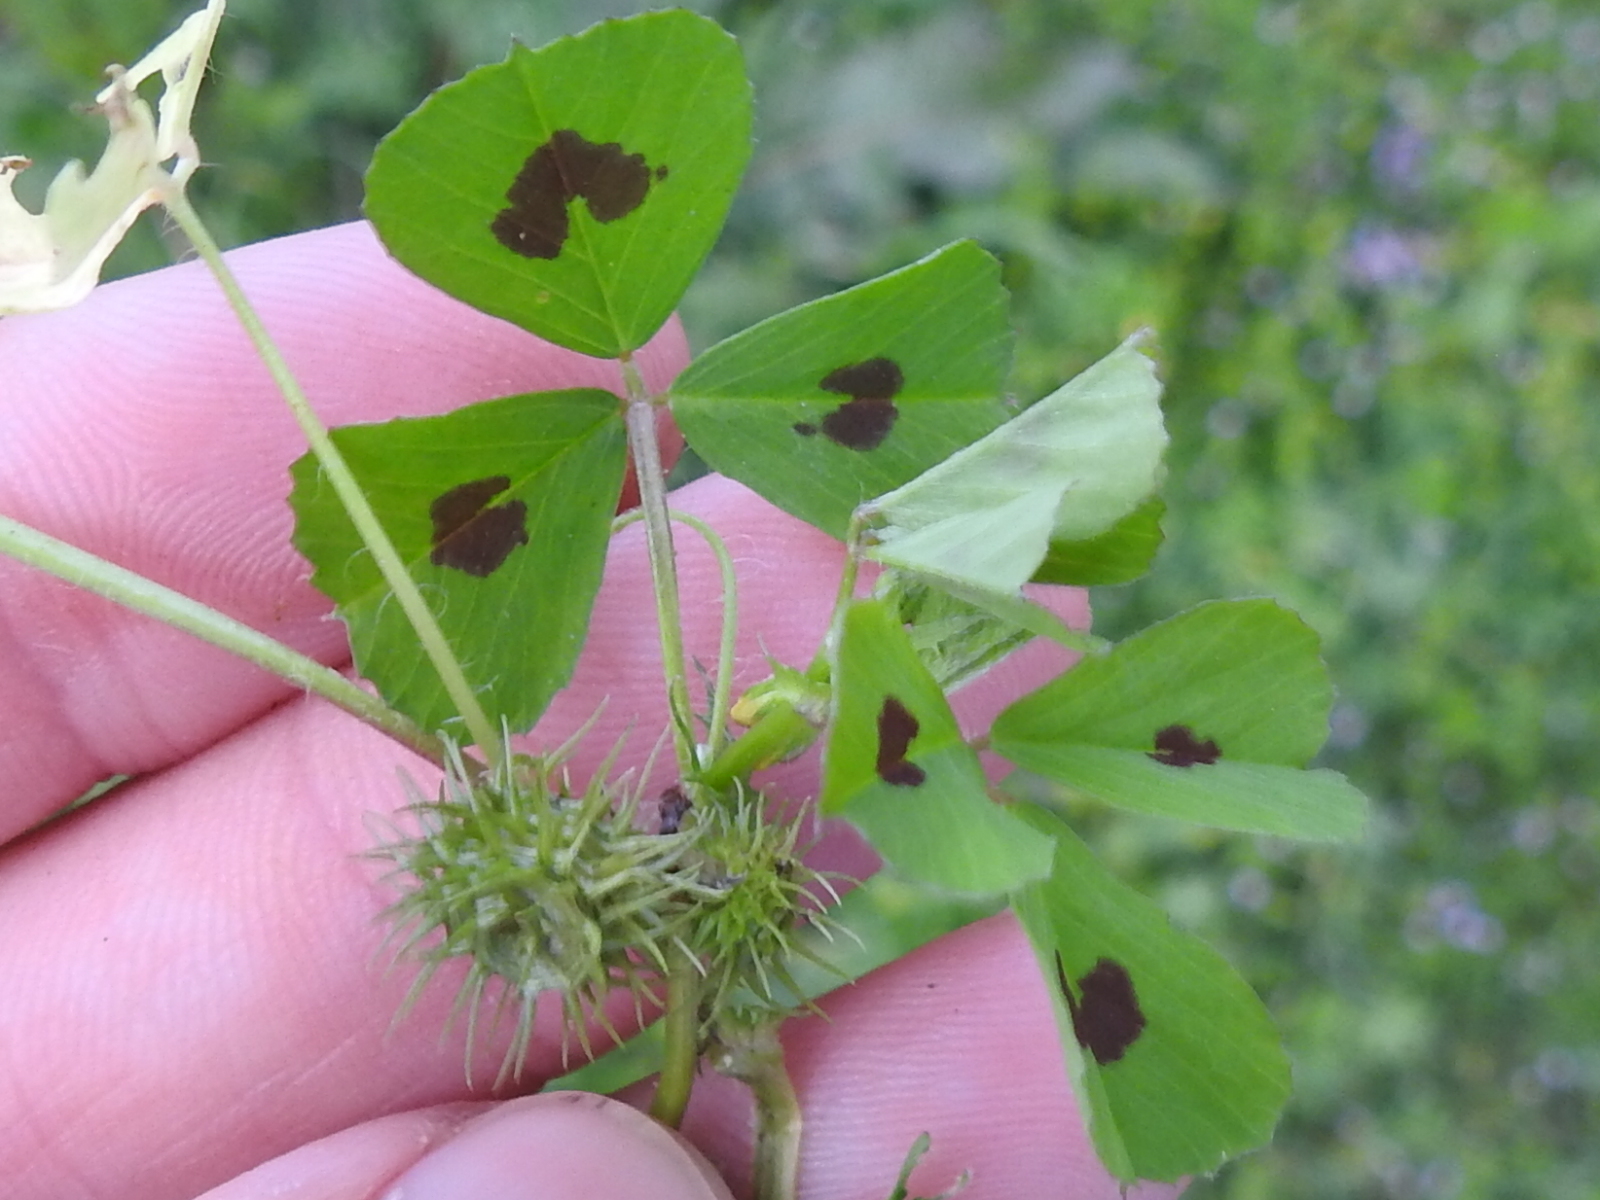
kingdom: Plantae
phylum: Tracheophyta
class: Magnoliopsida
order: Fabales
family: Fabaceae
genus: Medicago
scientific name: Medicago arabica
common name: Spotted medick
